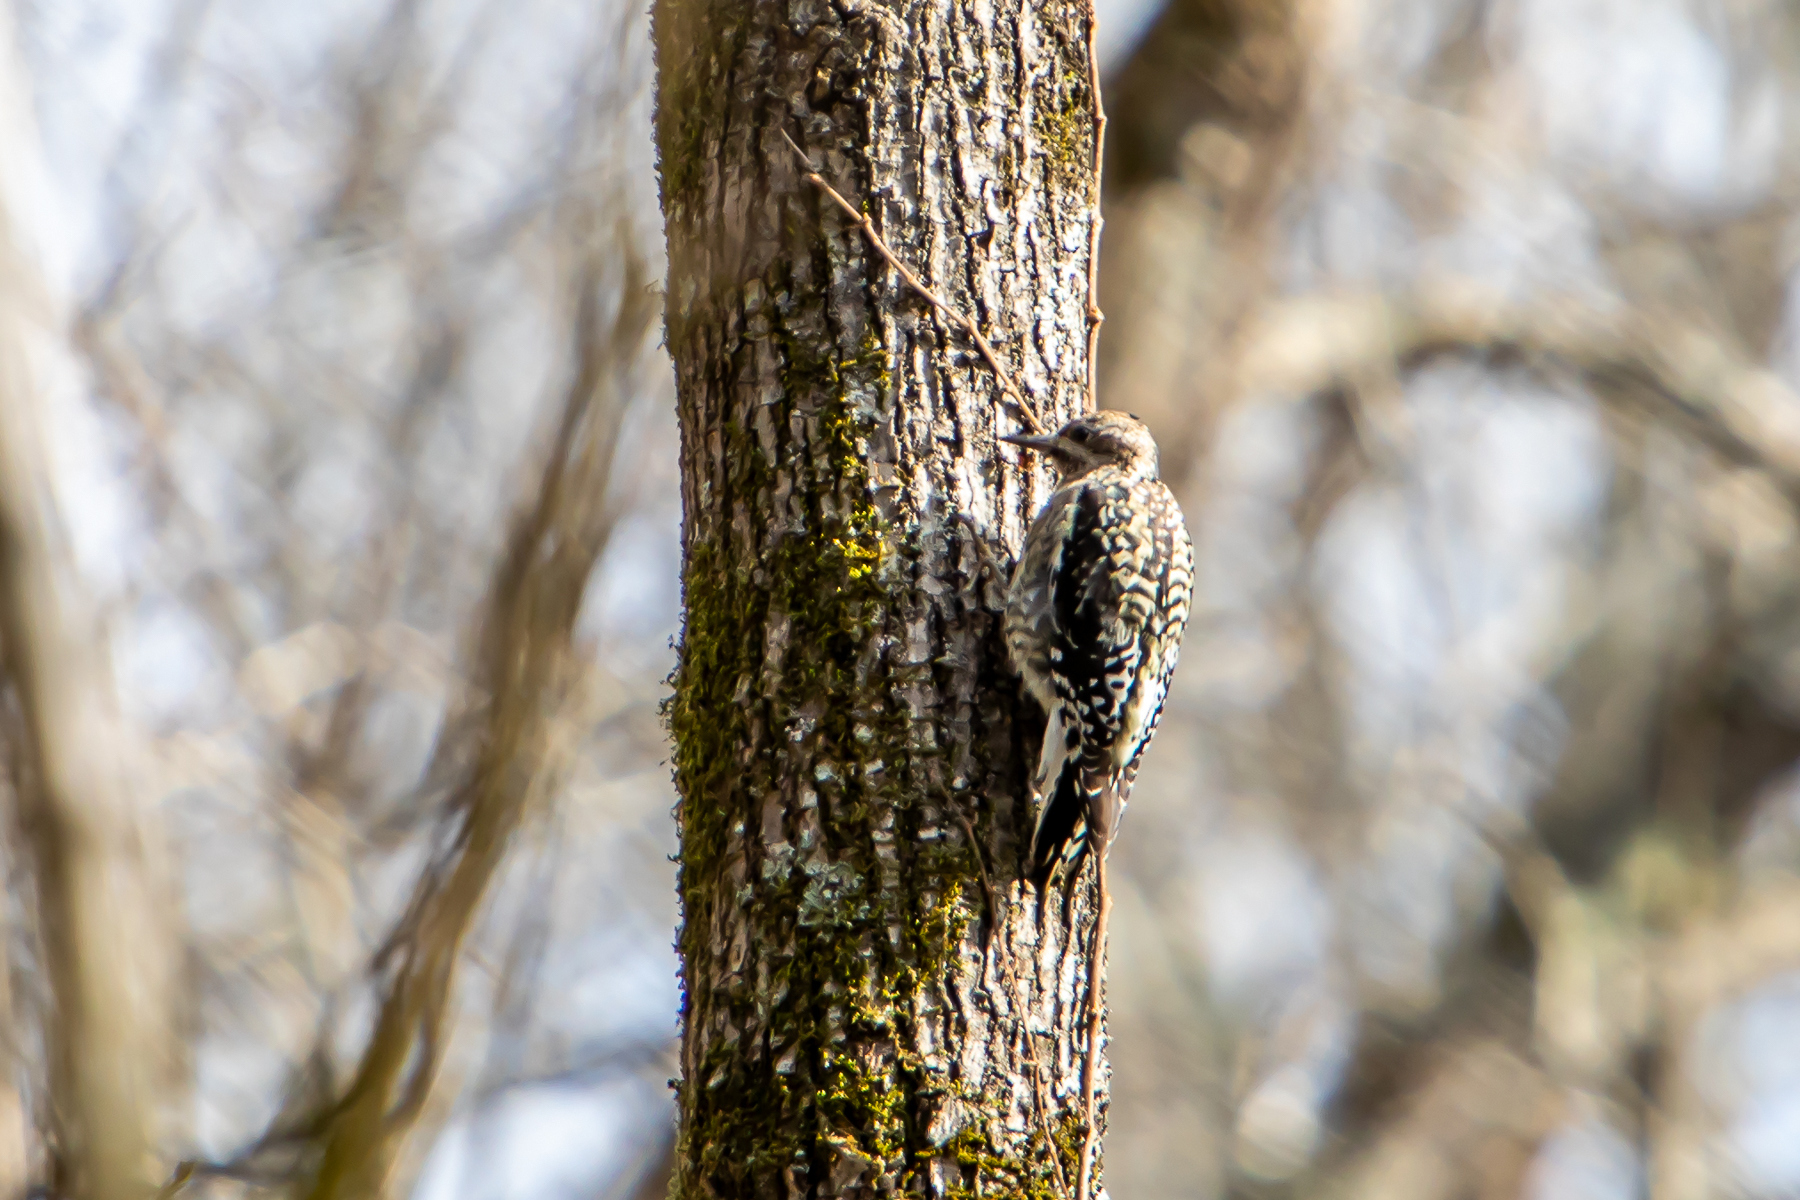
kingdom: Animalia
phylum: Chordata
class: Aves
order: Piciformes
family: Picidae
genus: Sphyrapicus
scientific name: Sphyrapicus varius
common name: Yellow-bellied sapsucker
